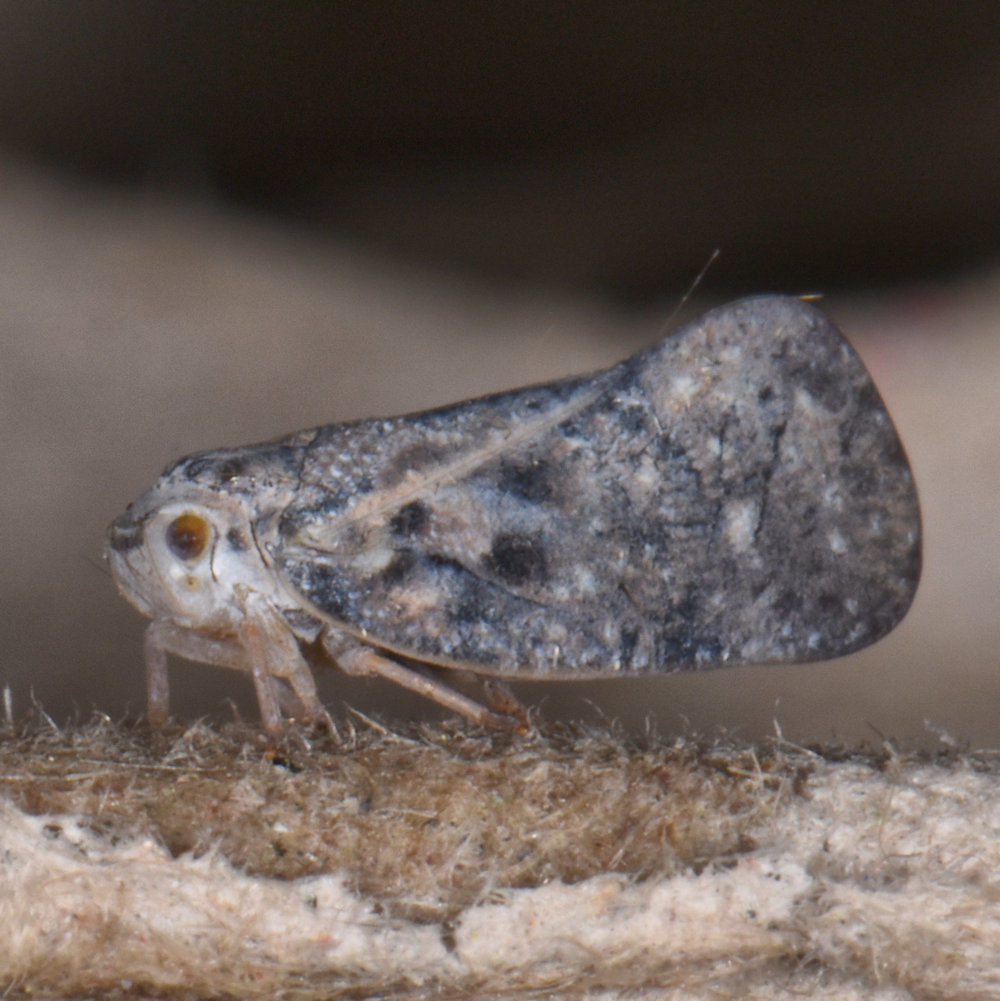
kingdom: Animalia
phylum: Arthropoda
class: Insecta
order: Hemiptera
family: Flatidae
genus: Metcalfa
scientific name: Metcalfa pruinosa
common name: Citrus flatid planthopper
